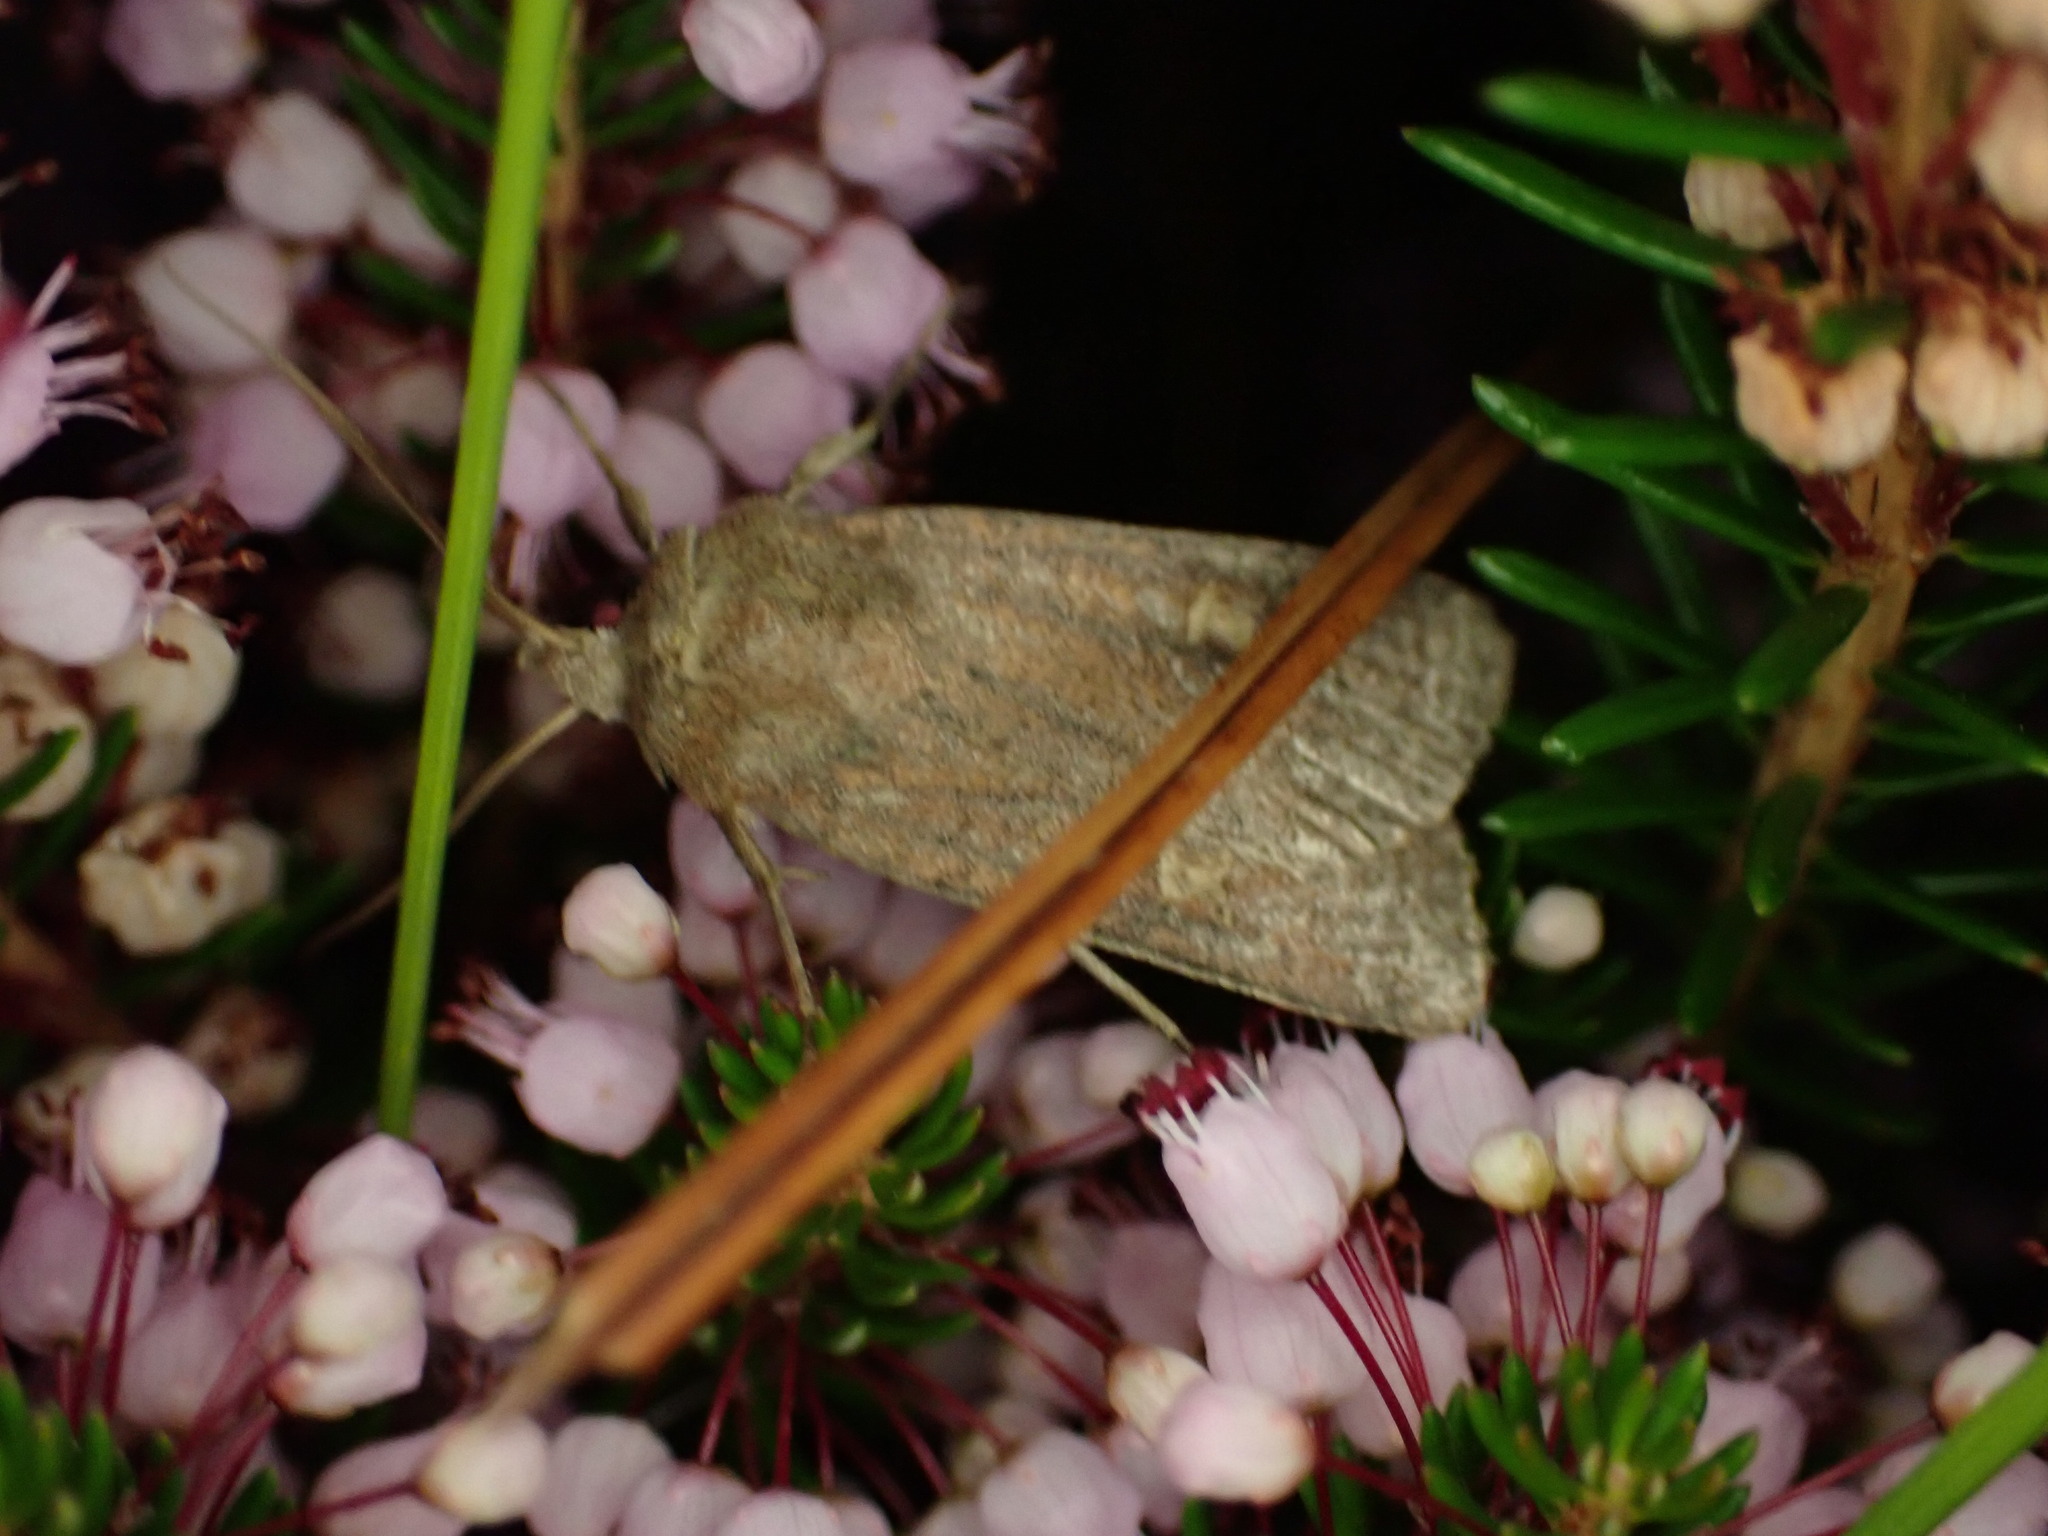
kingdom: Animalia
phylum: Arthropoda
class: Insecta
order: Lepidoptera
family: Noctuidae
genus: Xestia
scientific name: Xestia xanthographa
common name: Square-spot rustic
